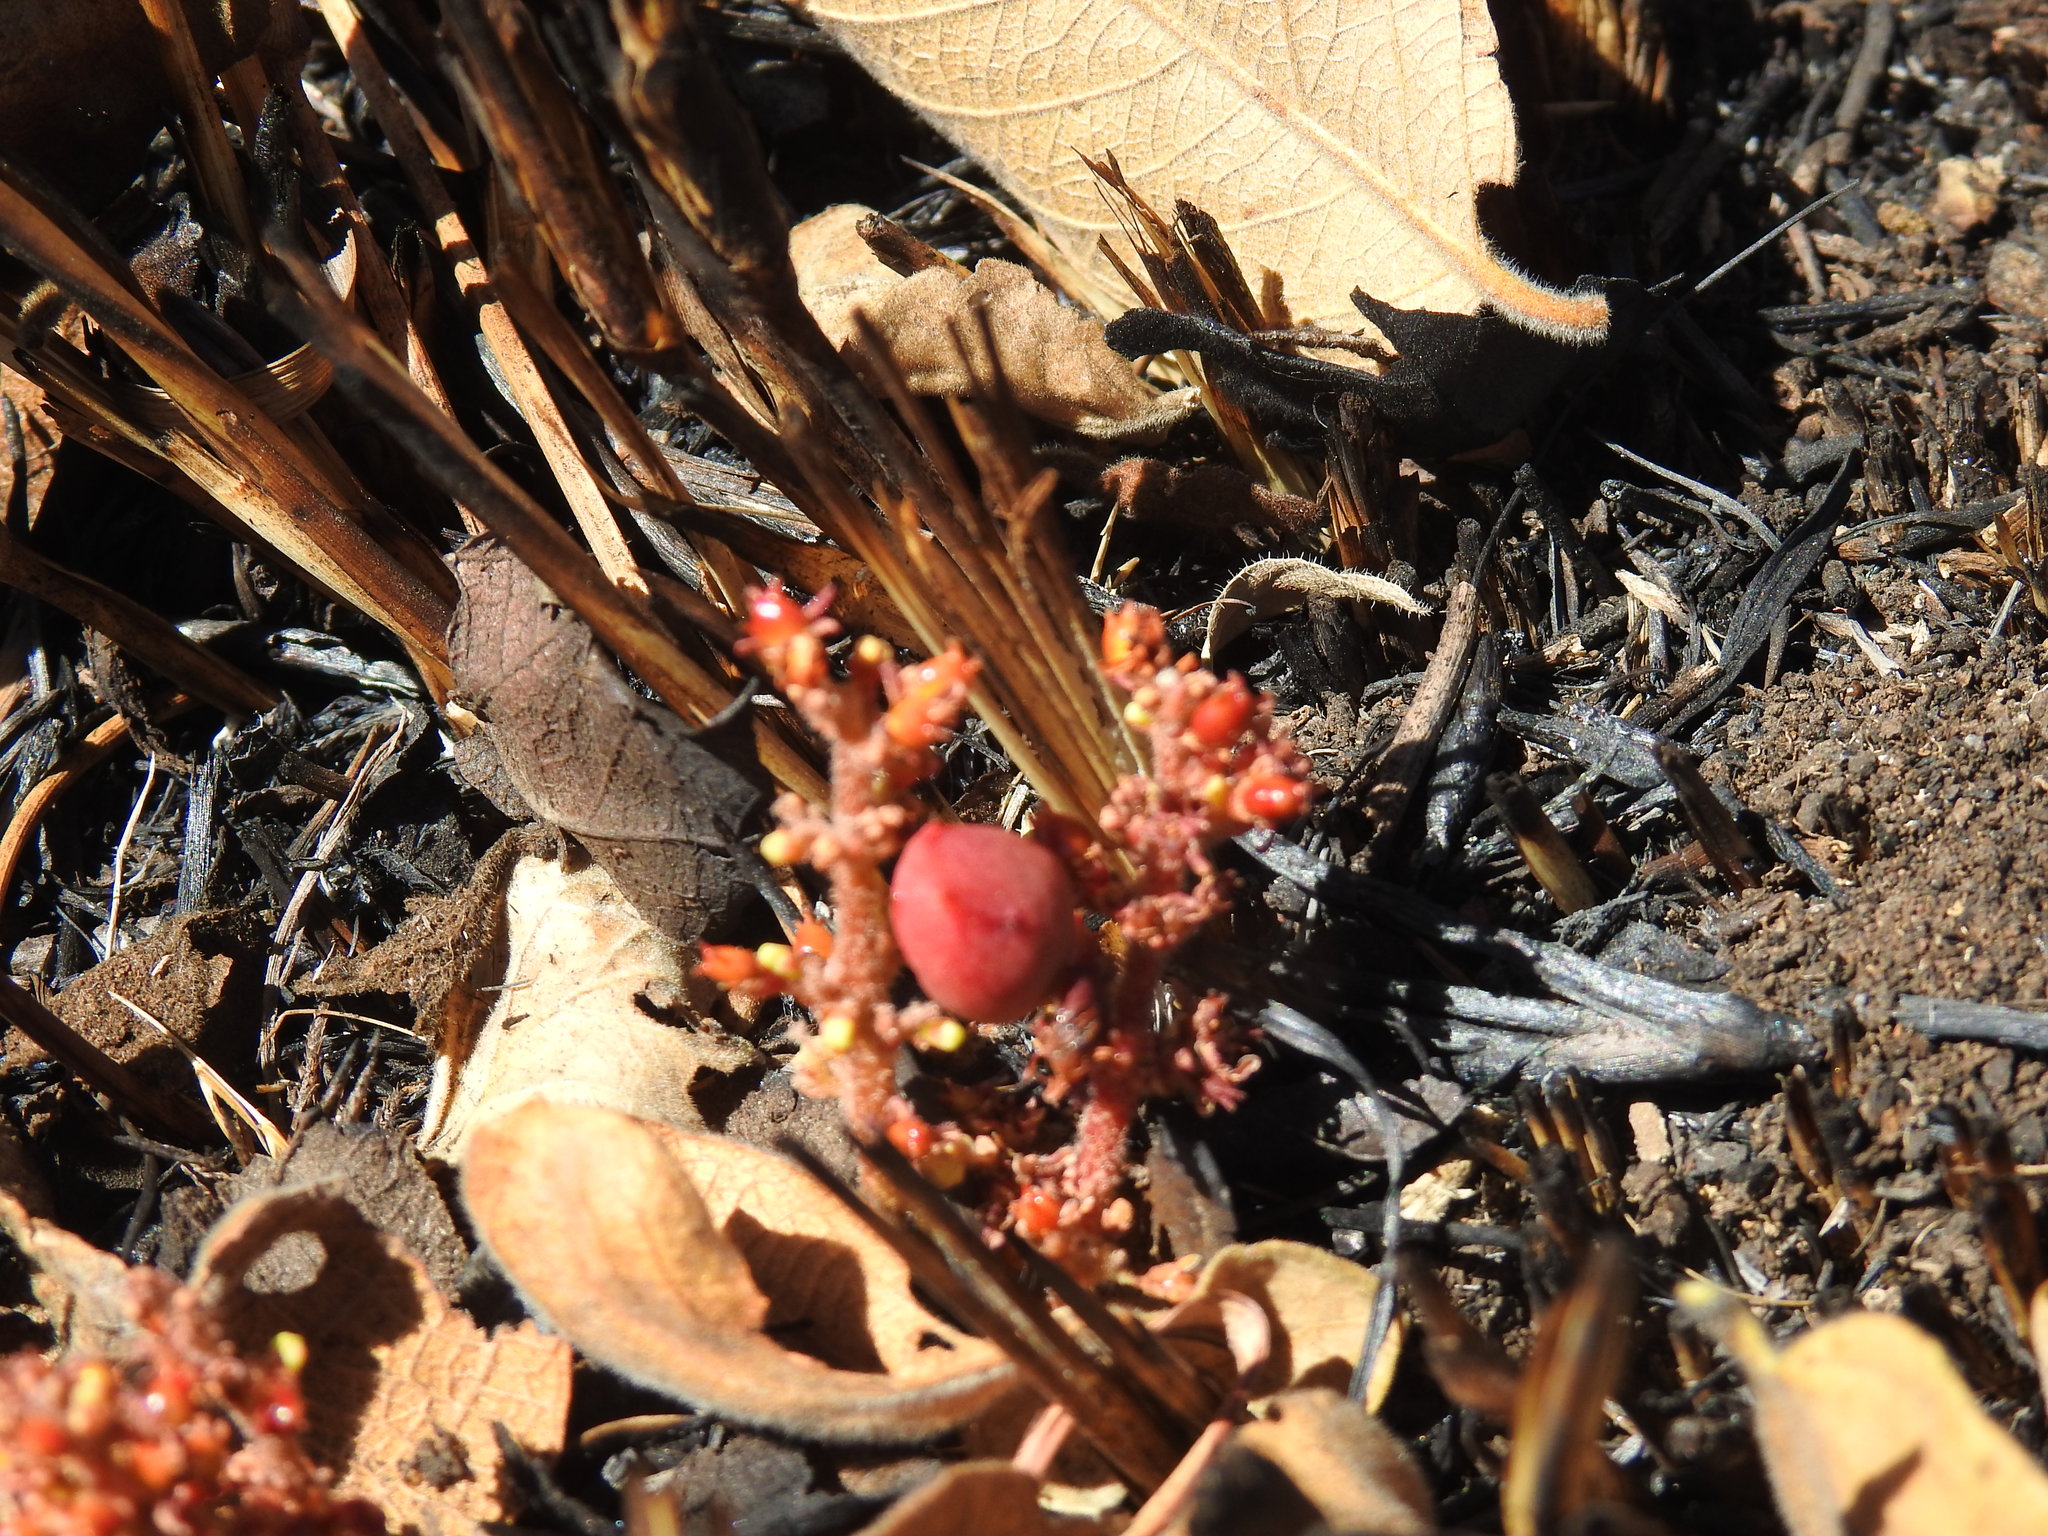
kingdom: Plantae
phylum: Tracheophyta
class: Magnoliopsida
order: Sapindales
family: Anacardiaceae
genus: Lannea
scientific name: Lannea edulis
